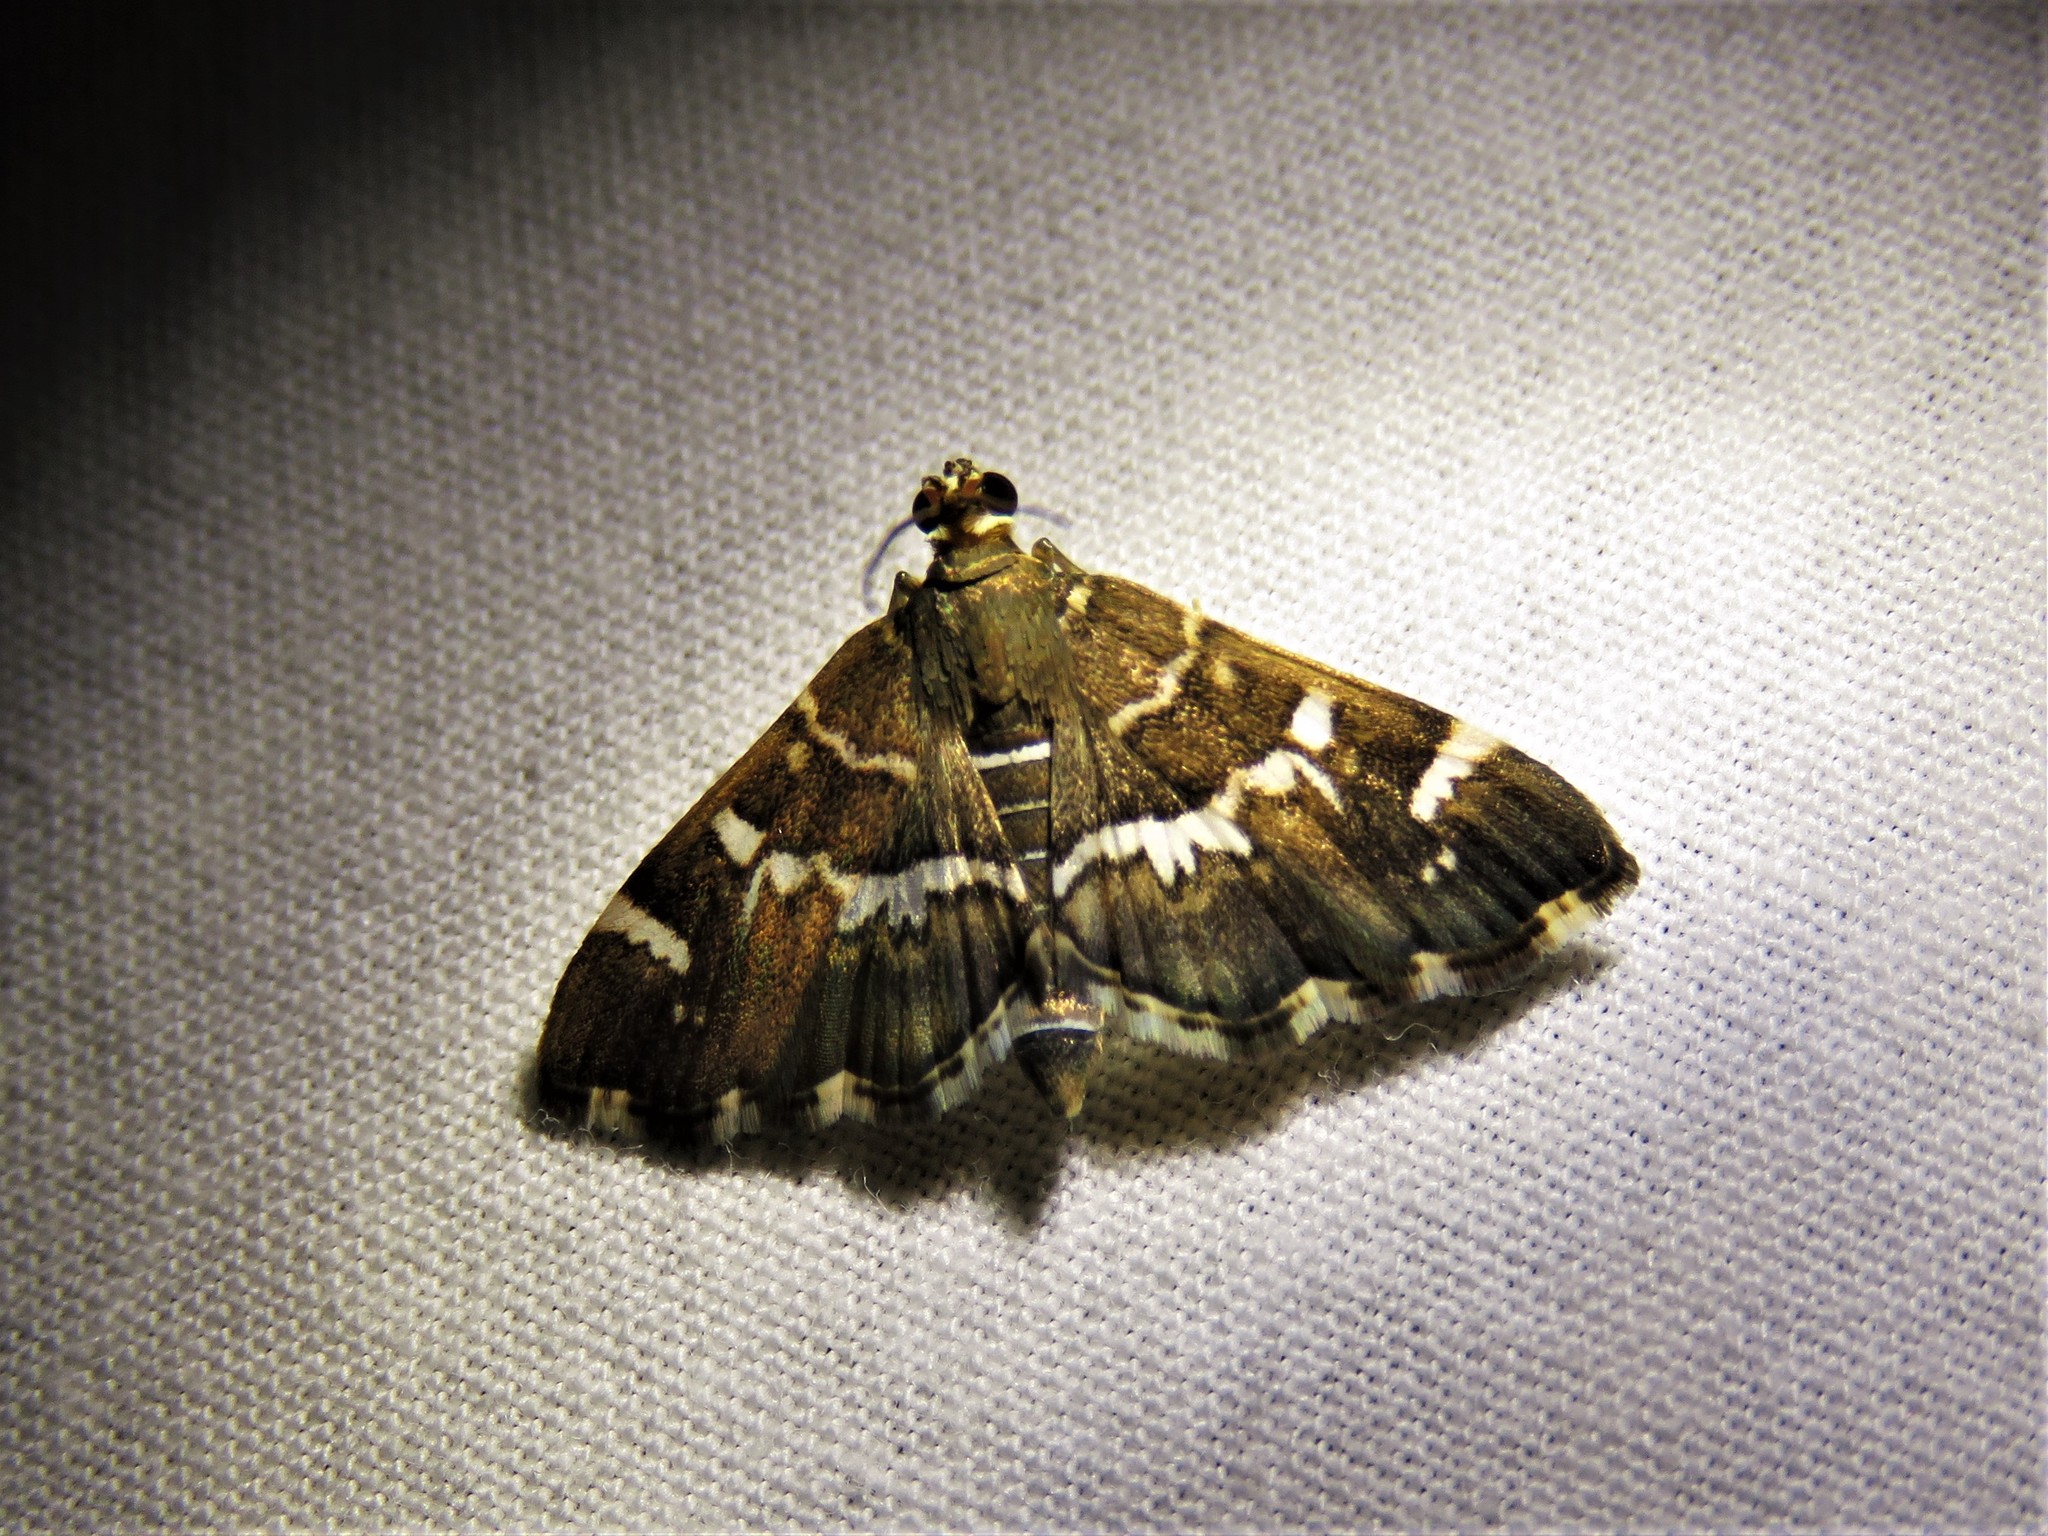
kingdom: Animalia
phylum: Arthropoda
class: Insecta
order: Lepidoptera
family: Crambidae
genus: Hymenia
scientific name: Hymenia perspectalis
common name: Spotted beet webworm
